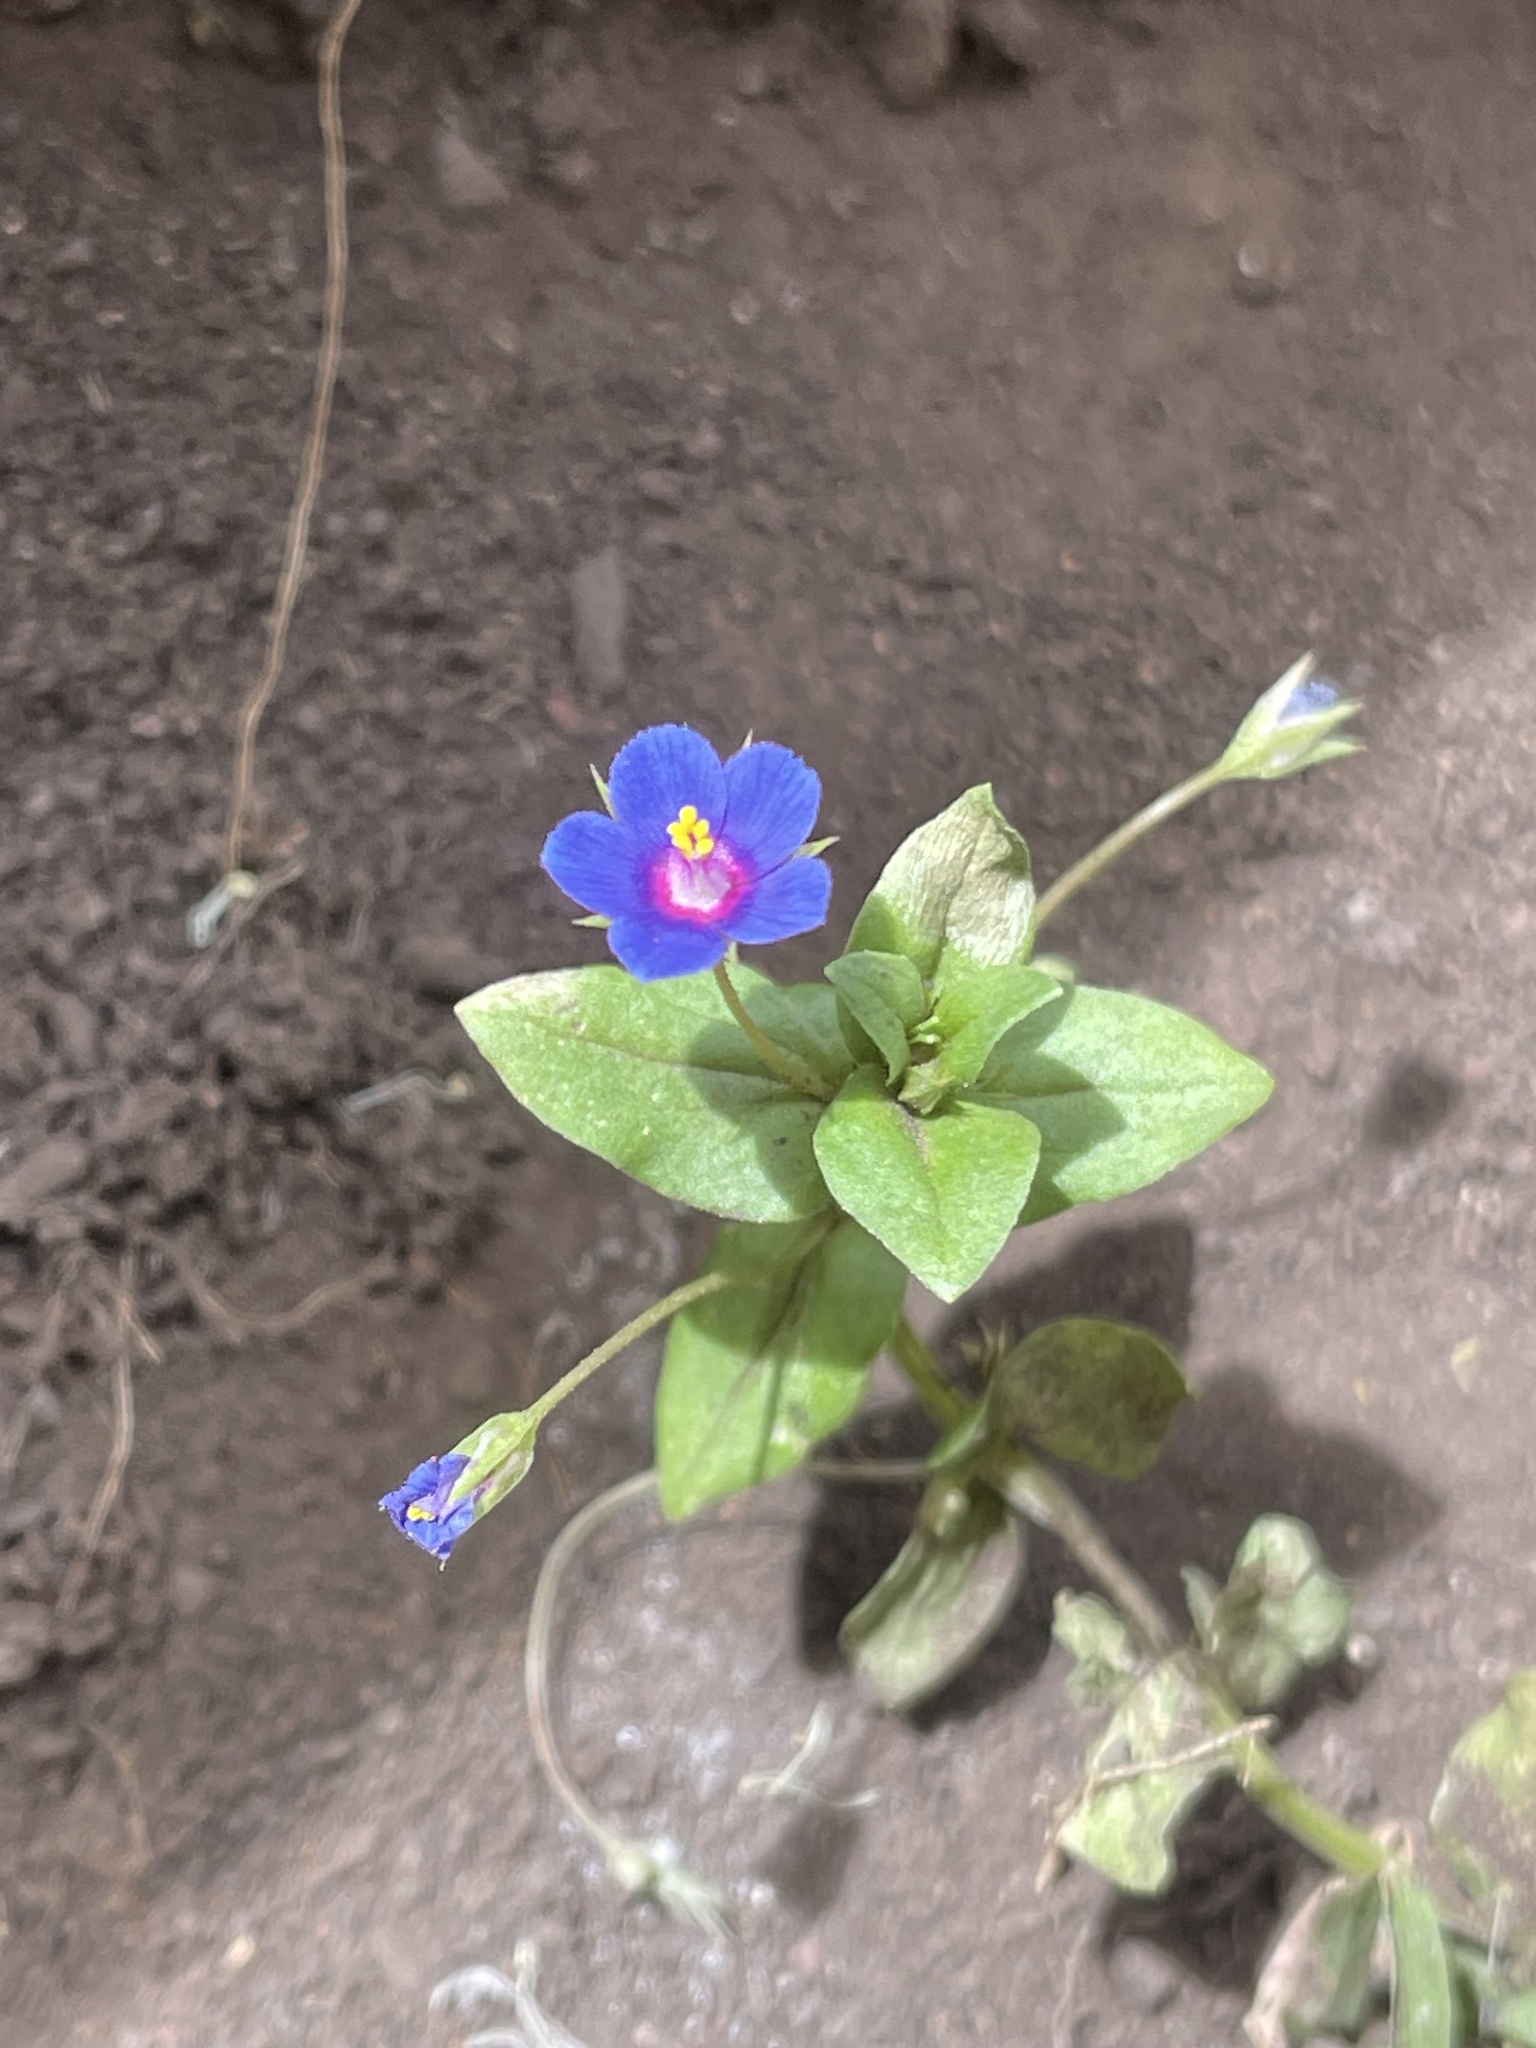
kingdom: Plantae
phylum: Tracheophyta
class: Magnoliopsida
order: Ericales
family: Primulaceae
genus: Lysimachia
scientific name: Lysimachia loeflingii
